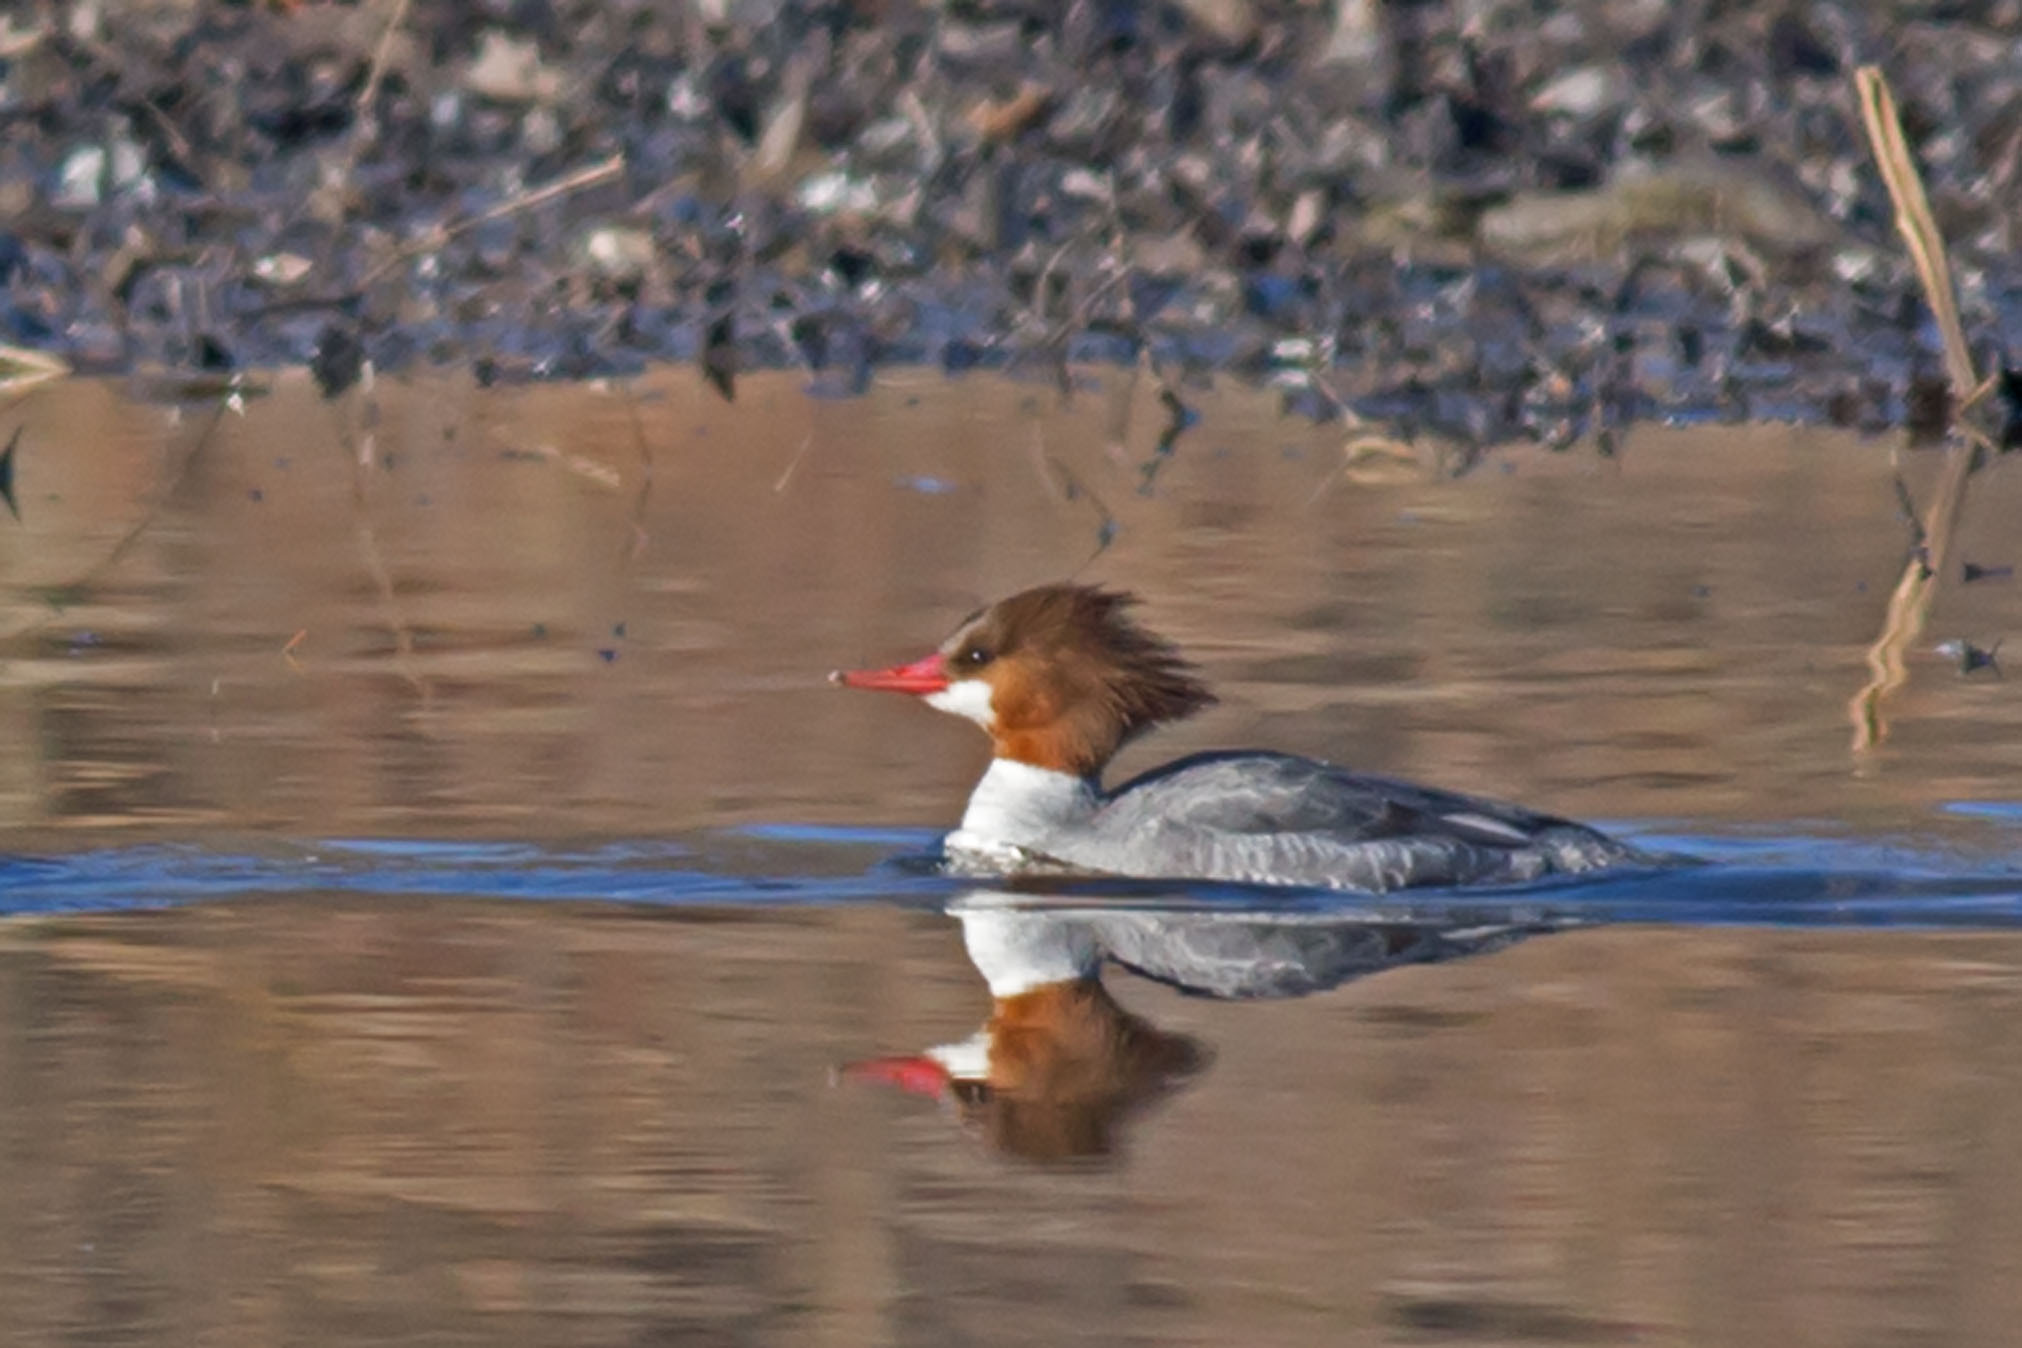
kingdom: Animalia
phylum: Chordata
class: Aves
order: Anseriformes
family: Anatidae
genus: Mergus
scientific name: Mergus merganser
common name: Common merganser
